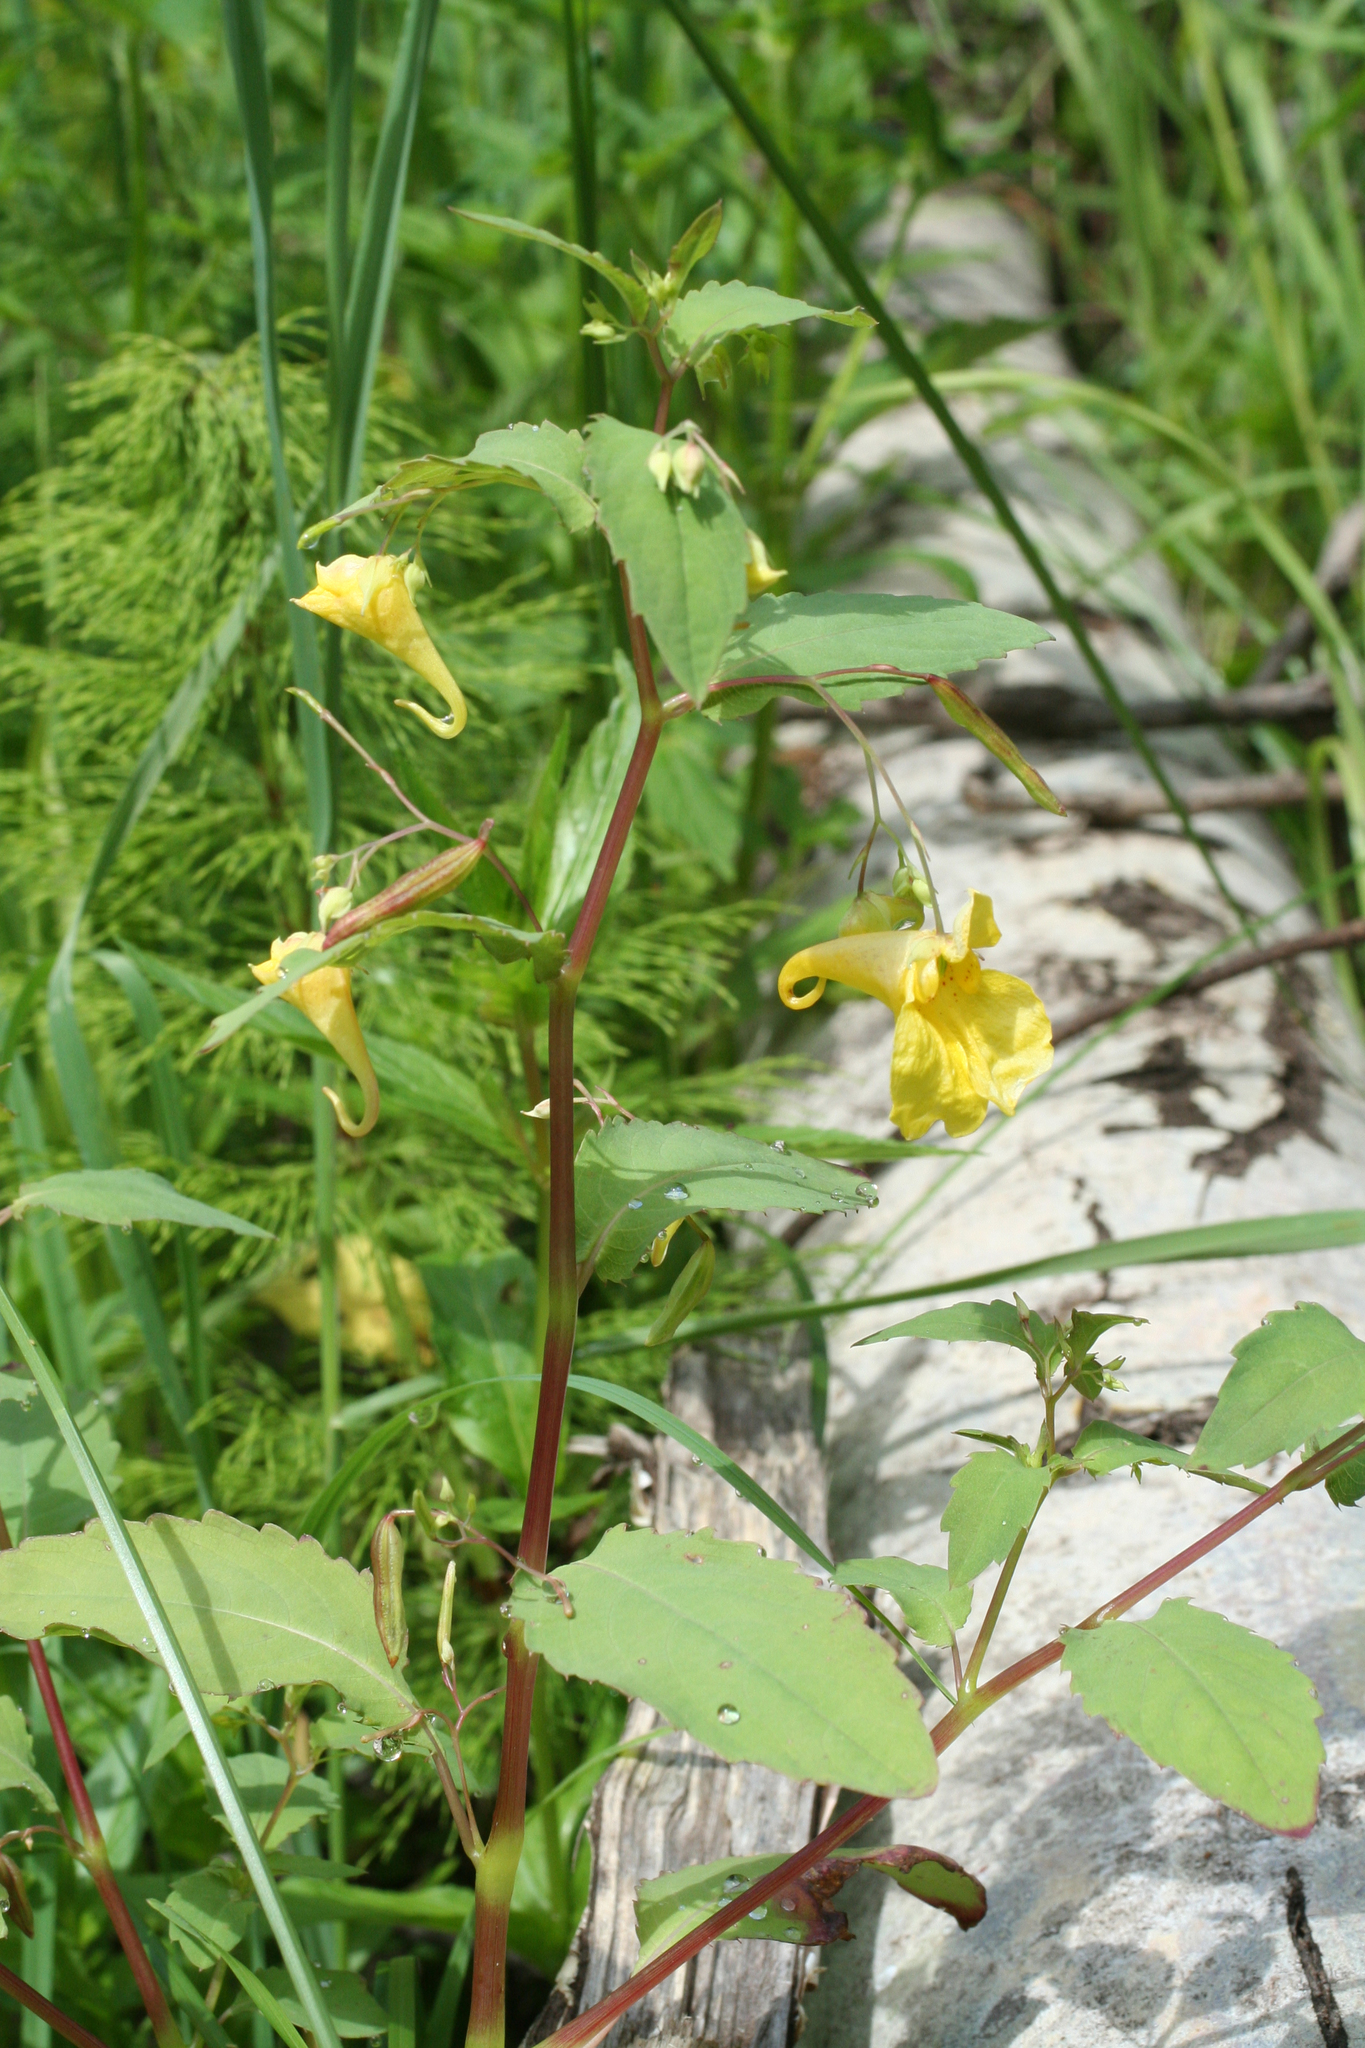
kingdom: Plantae
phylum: Tracheophyta
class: Magnoliopsida
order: Ericales
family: Balsaminaceae
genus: Impatiens
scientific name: Impatiens noli-tangere
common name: Touch-me-not balsam
